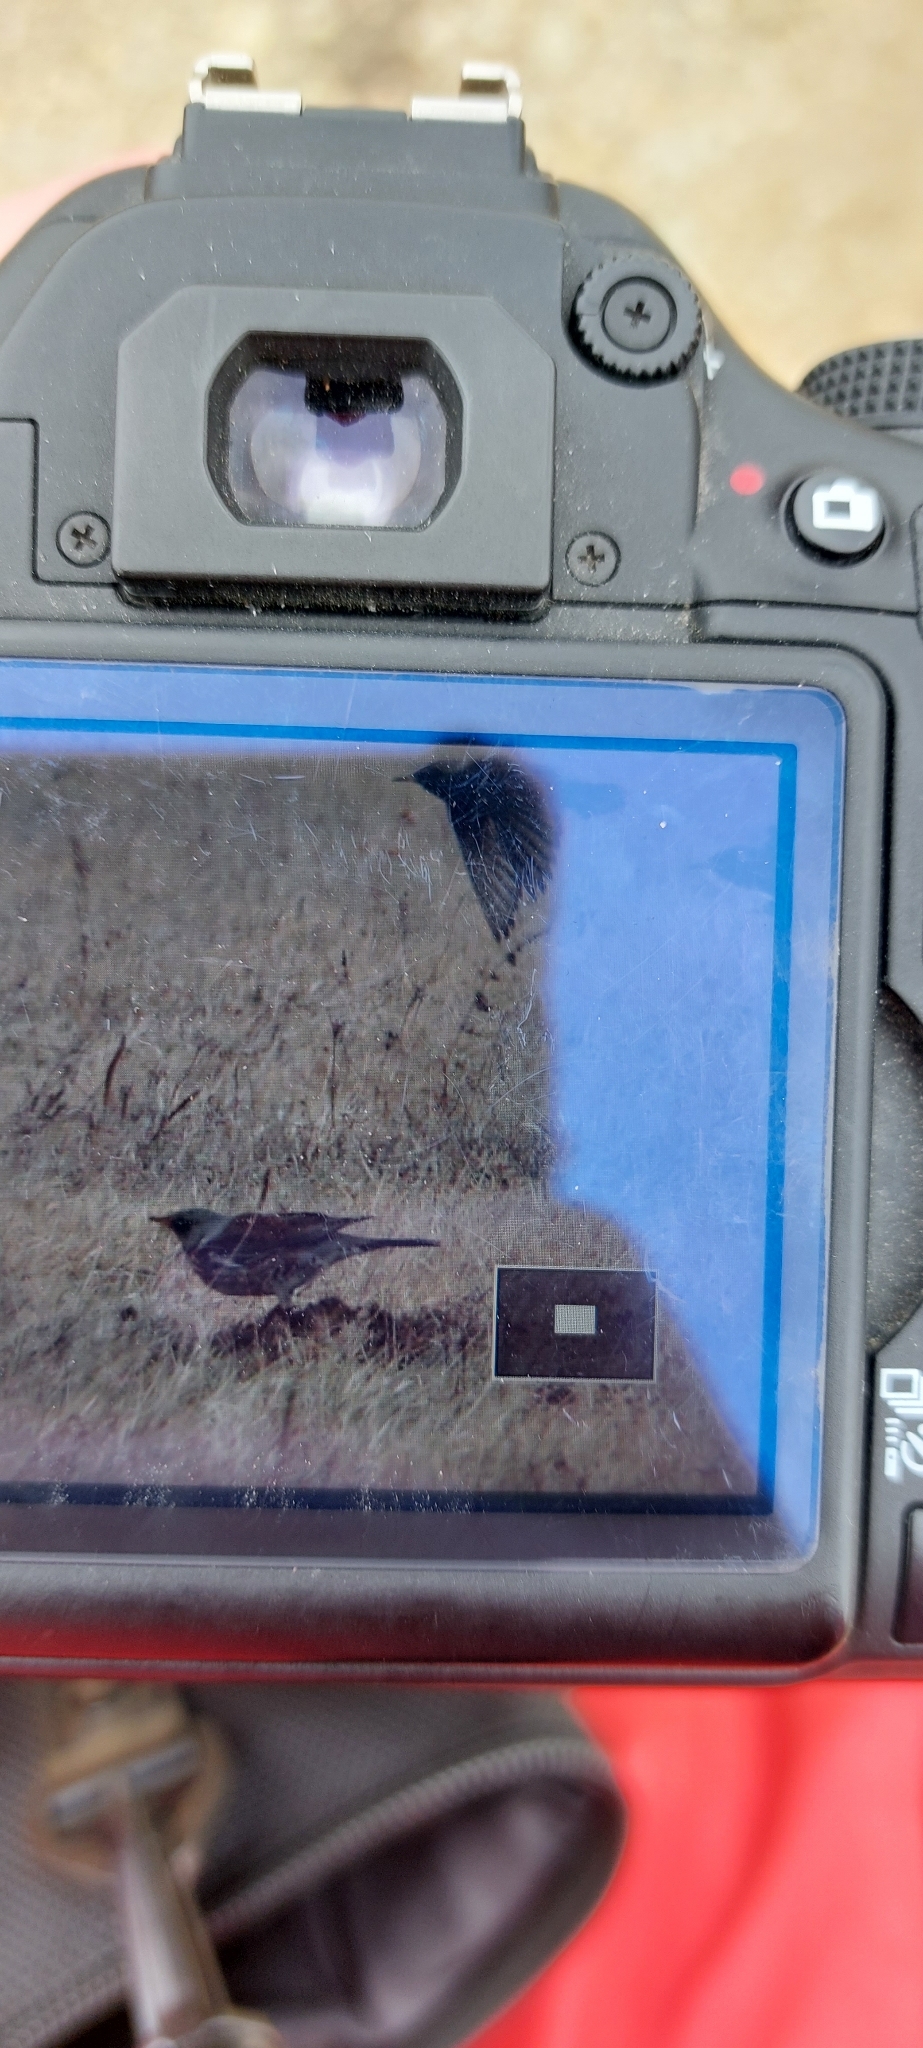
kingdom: Animalia
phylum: Chordata
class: Aves
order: Passeriformes
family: Turdidae
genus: Turdus
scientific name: Turdus pilaris
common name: Fieldfare
